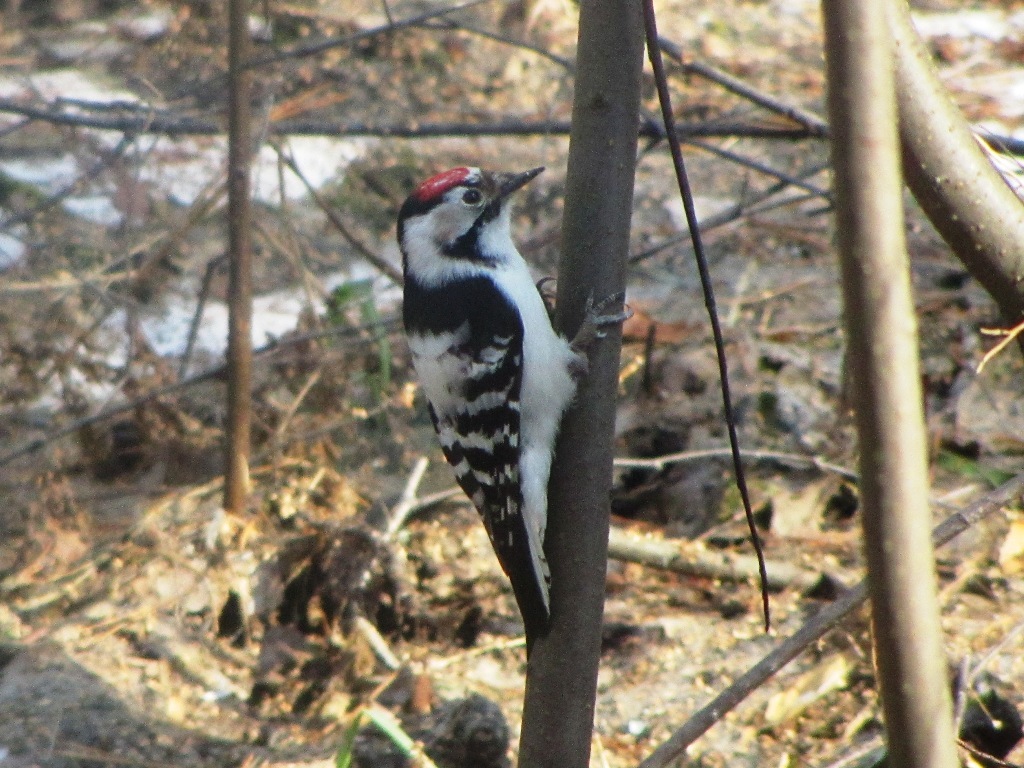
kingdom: Animalia
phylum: Chordata
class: Aves
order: Piciformes
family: Picidae
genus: Dryobates
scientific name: Dryobates minor
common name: Lesser spotted woodpecker
